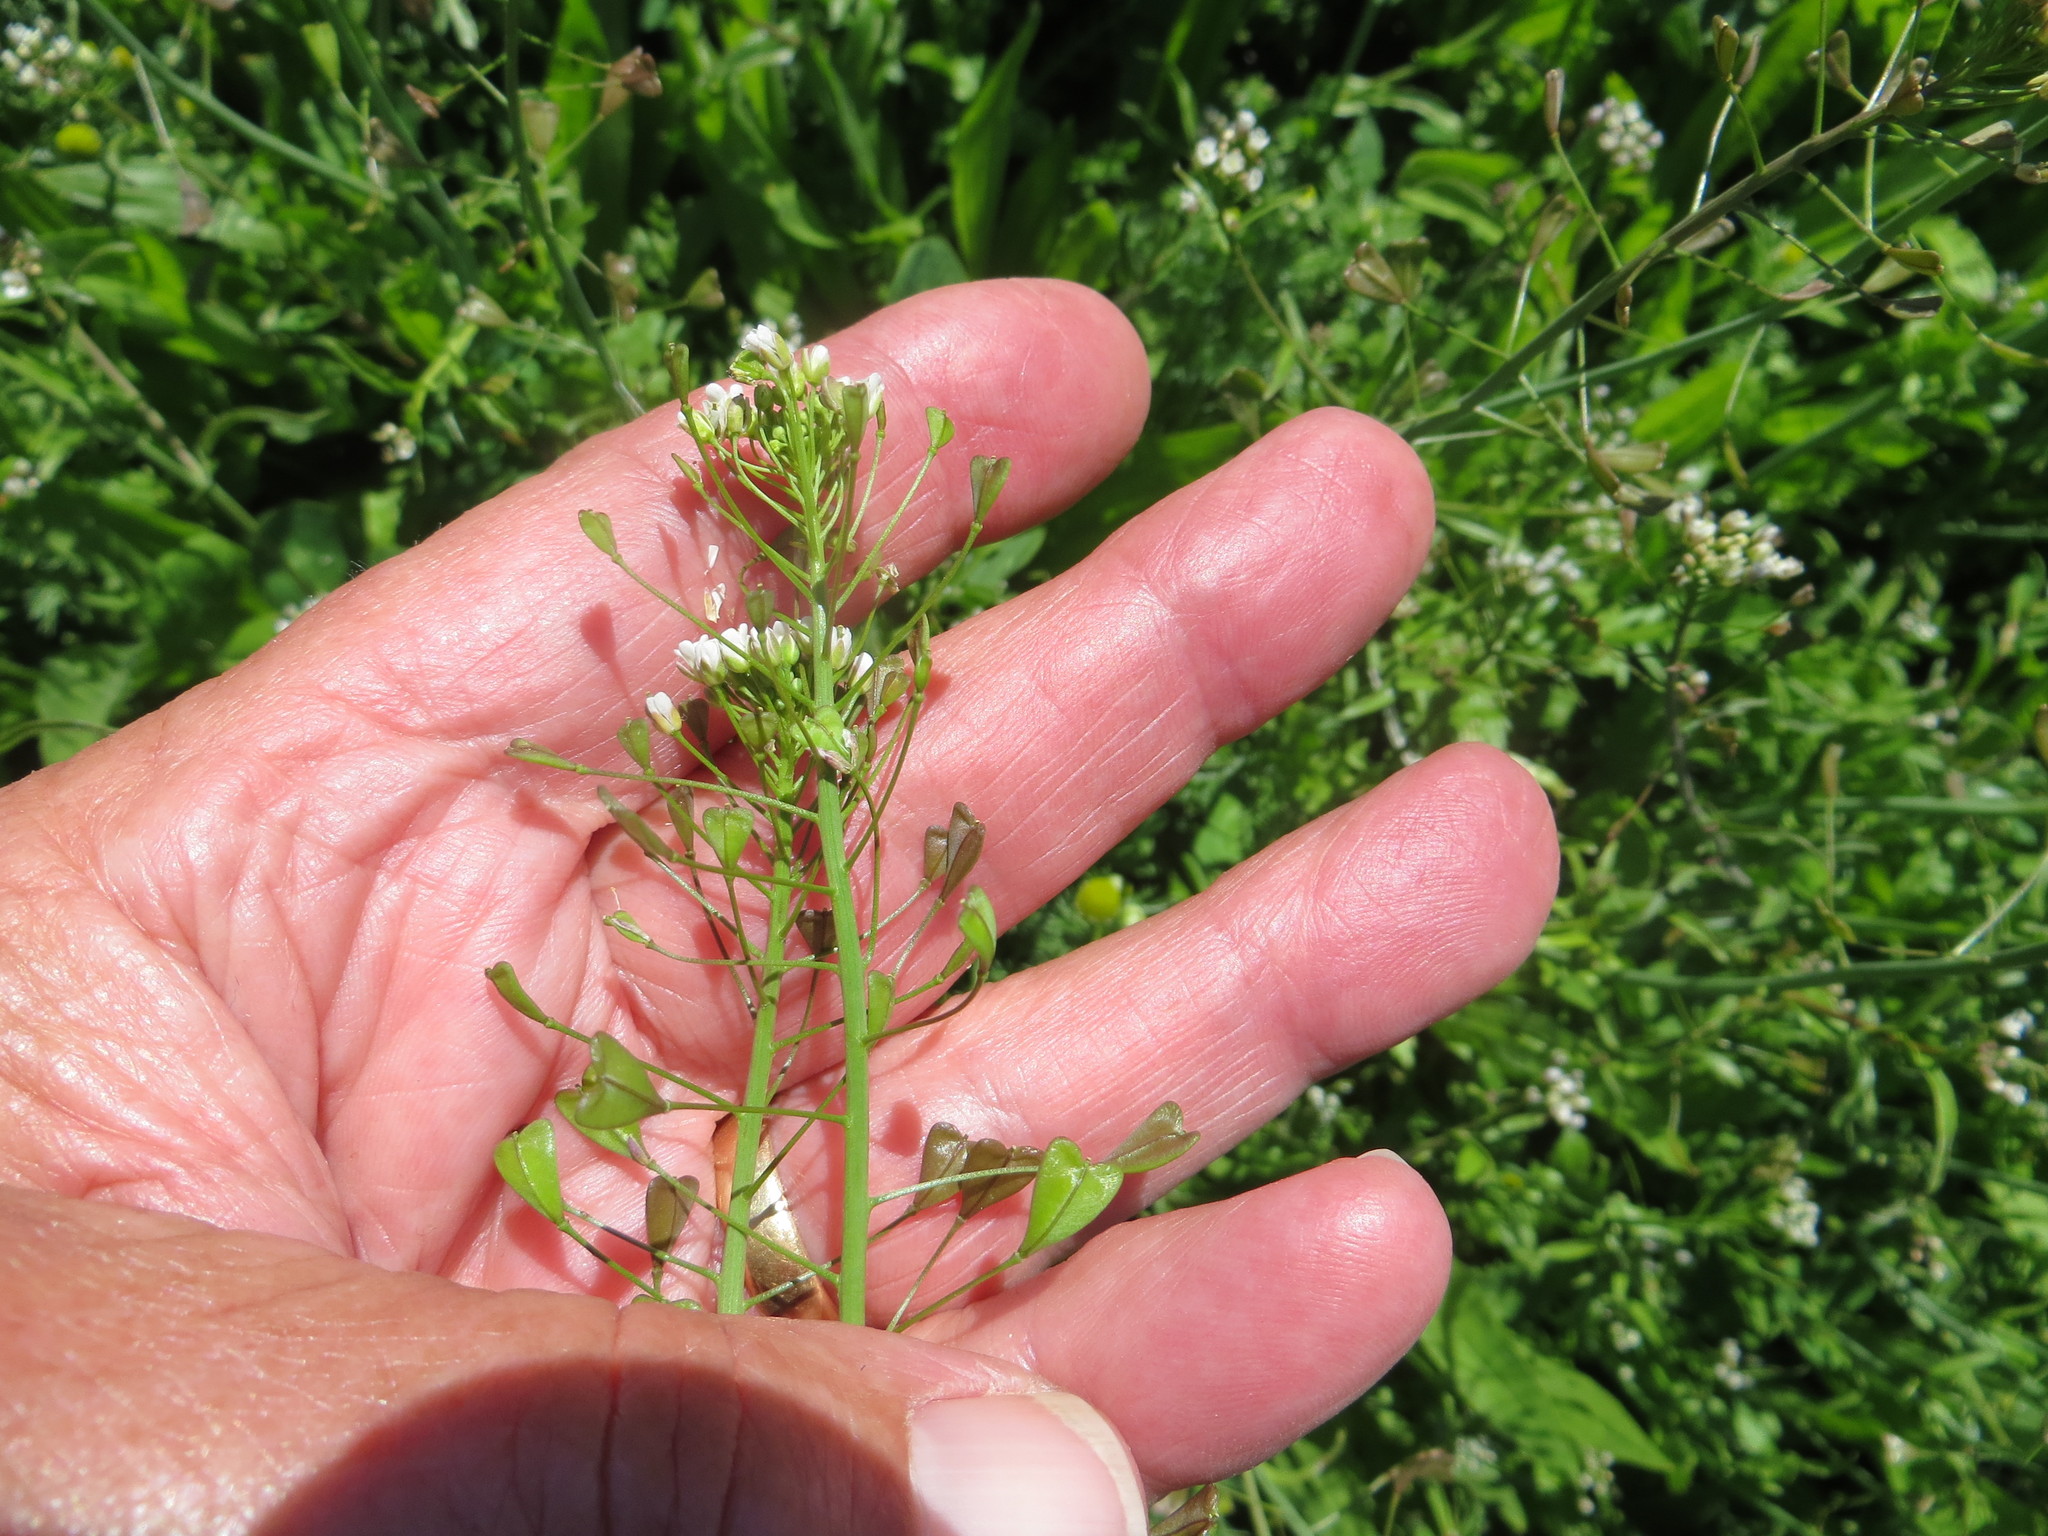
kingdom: Plantae
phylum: Tracheophyta
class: Magnoliopsida
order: Brassicales
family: Brassicaceae
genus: Capsella
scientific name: Capsella bursa-pastoris
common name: Shepherd's purse
